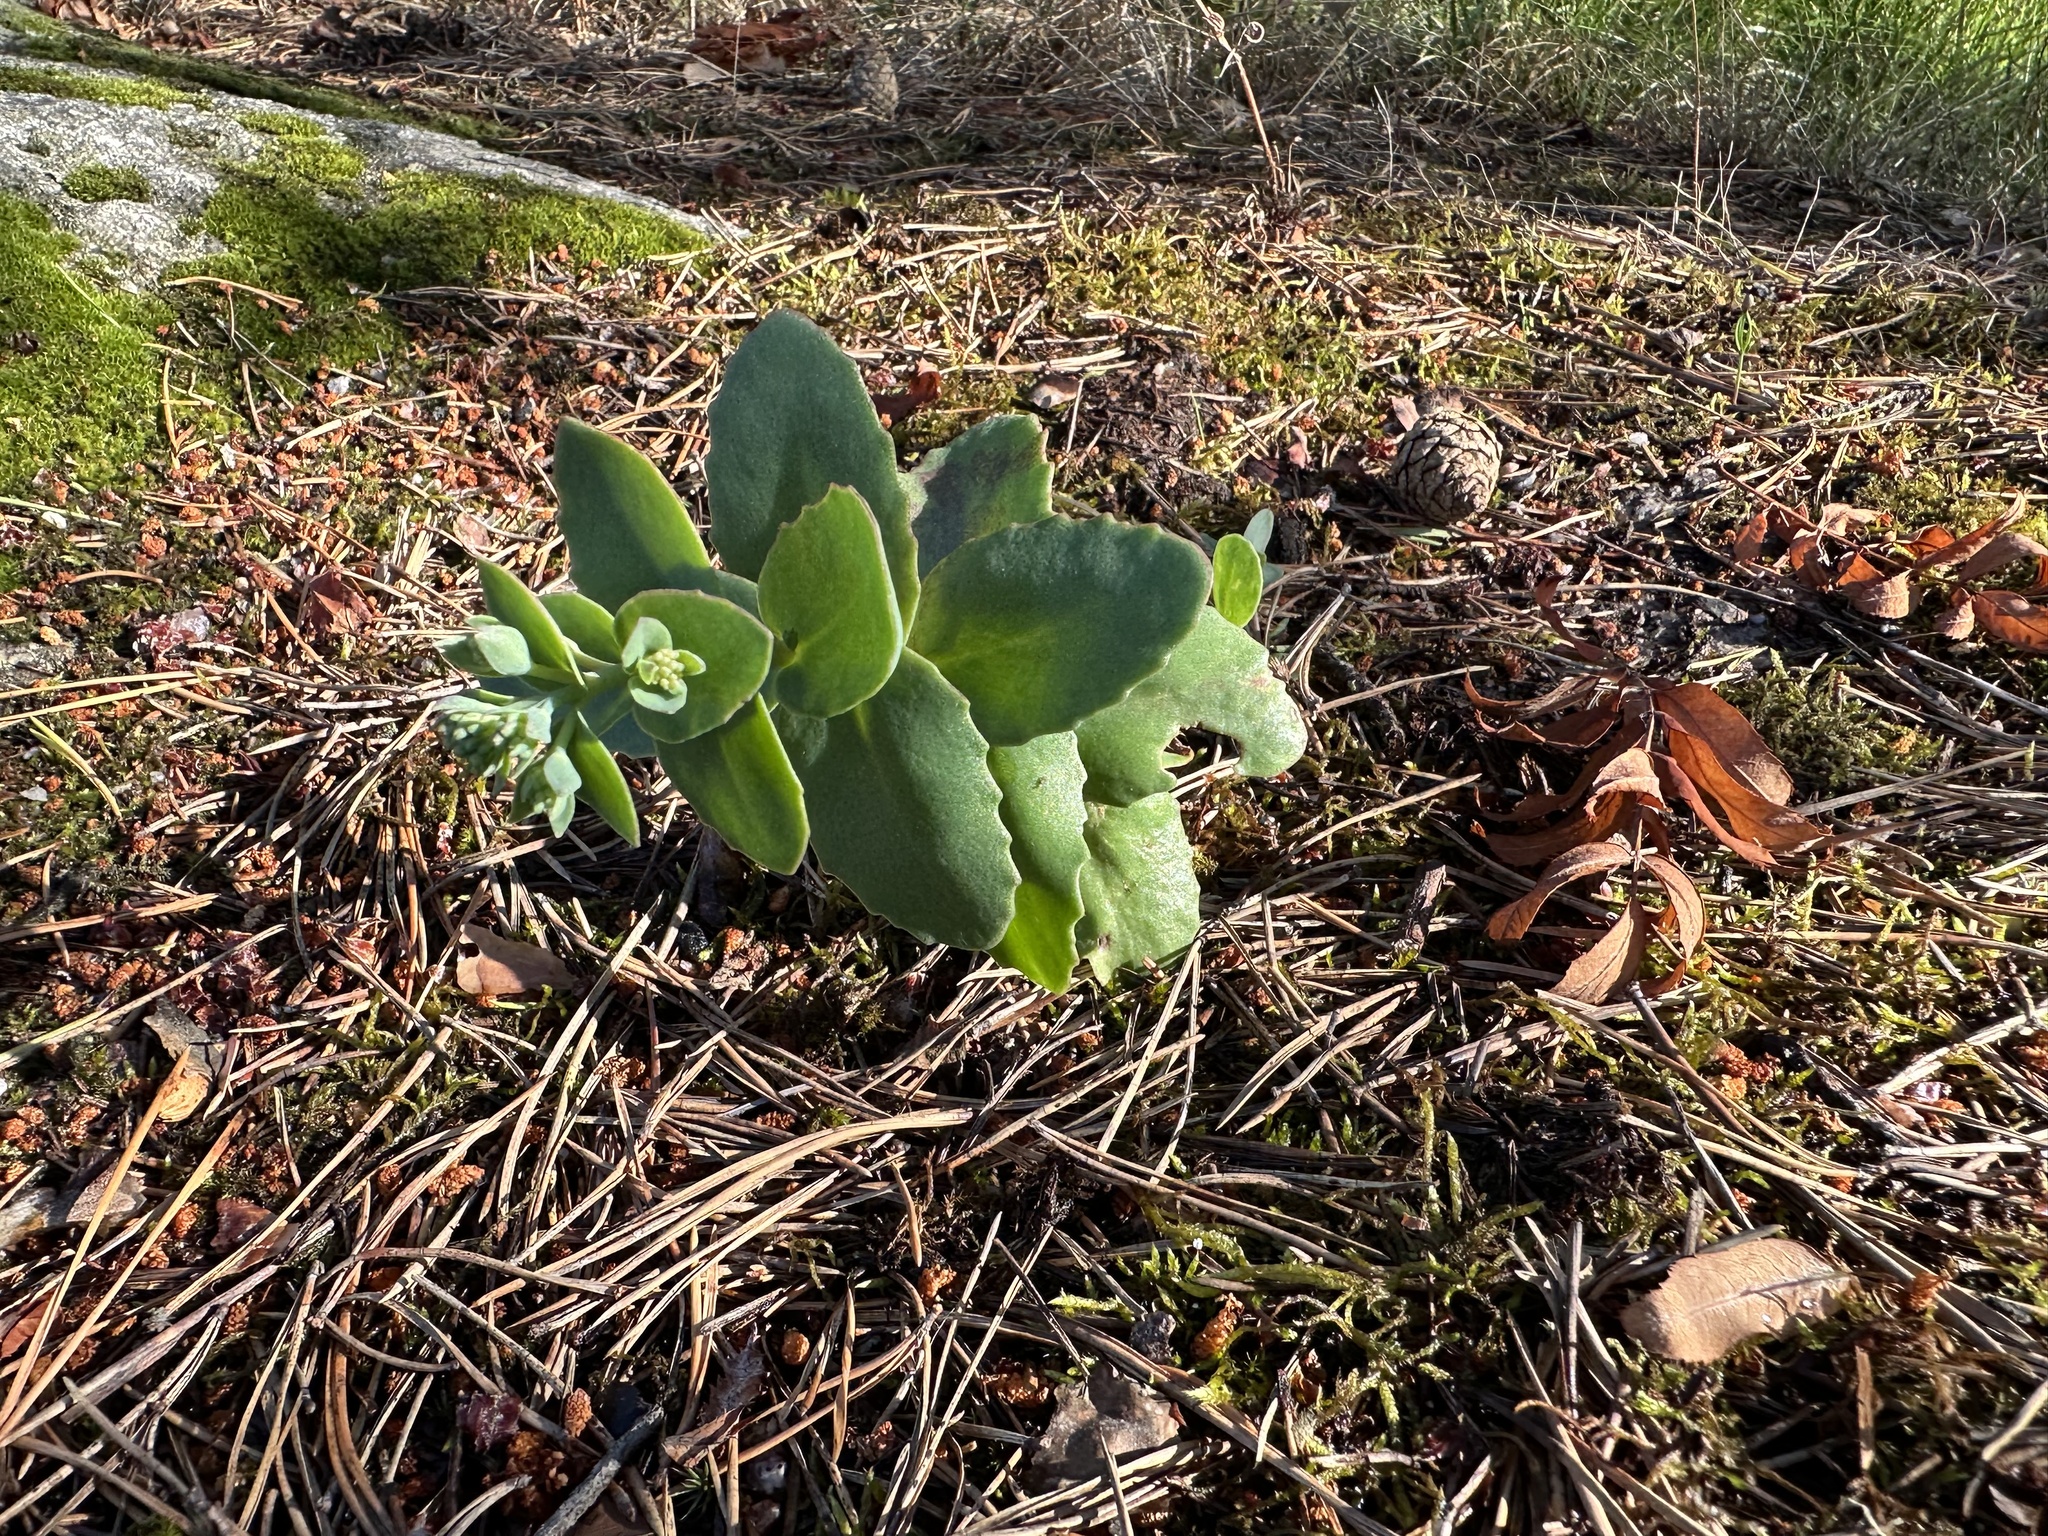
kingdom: Plantae
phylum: Tracheophyta
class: Magnoliopsida
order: Saxifragales
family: Crassulaceae
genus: Hylotelephium
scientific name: Hylotelephium maximum
